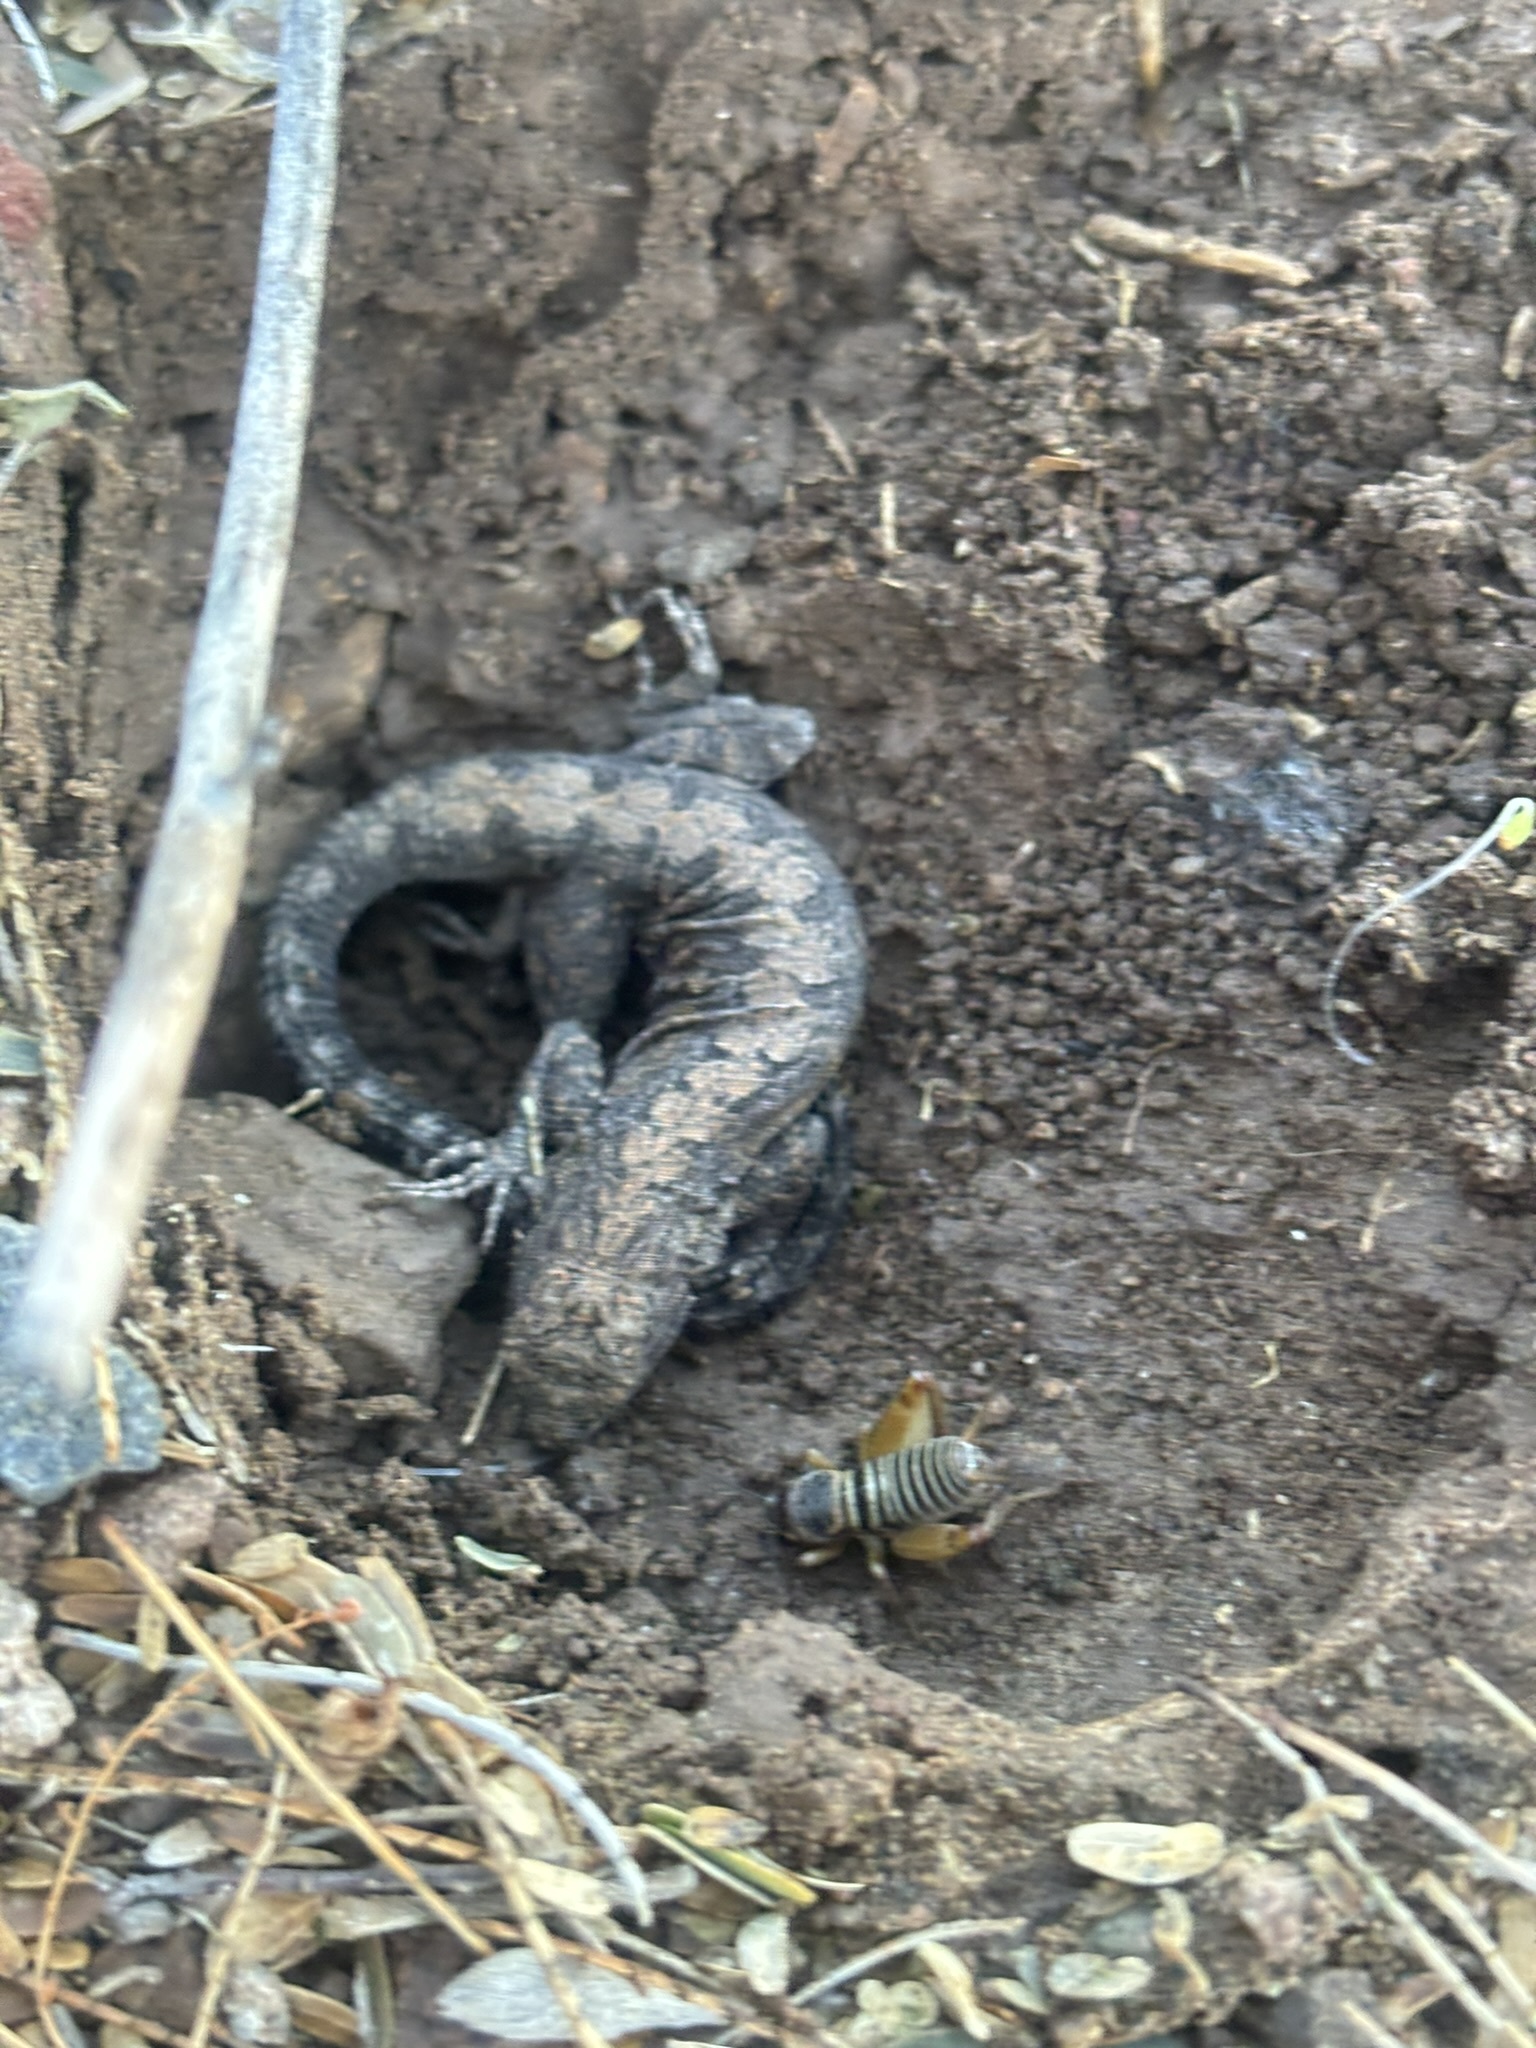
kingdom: Animalia
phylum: Chordata
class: Squamata
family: Phrynosomatidae
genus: Urosaurus
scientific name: Urosaurus nigricauda
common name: Baja california brush lizard
